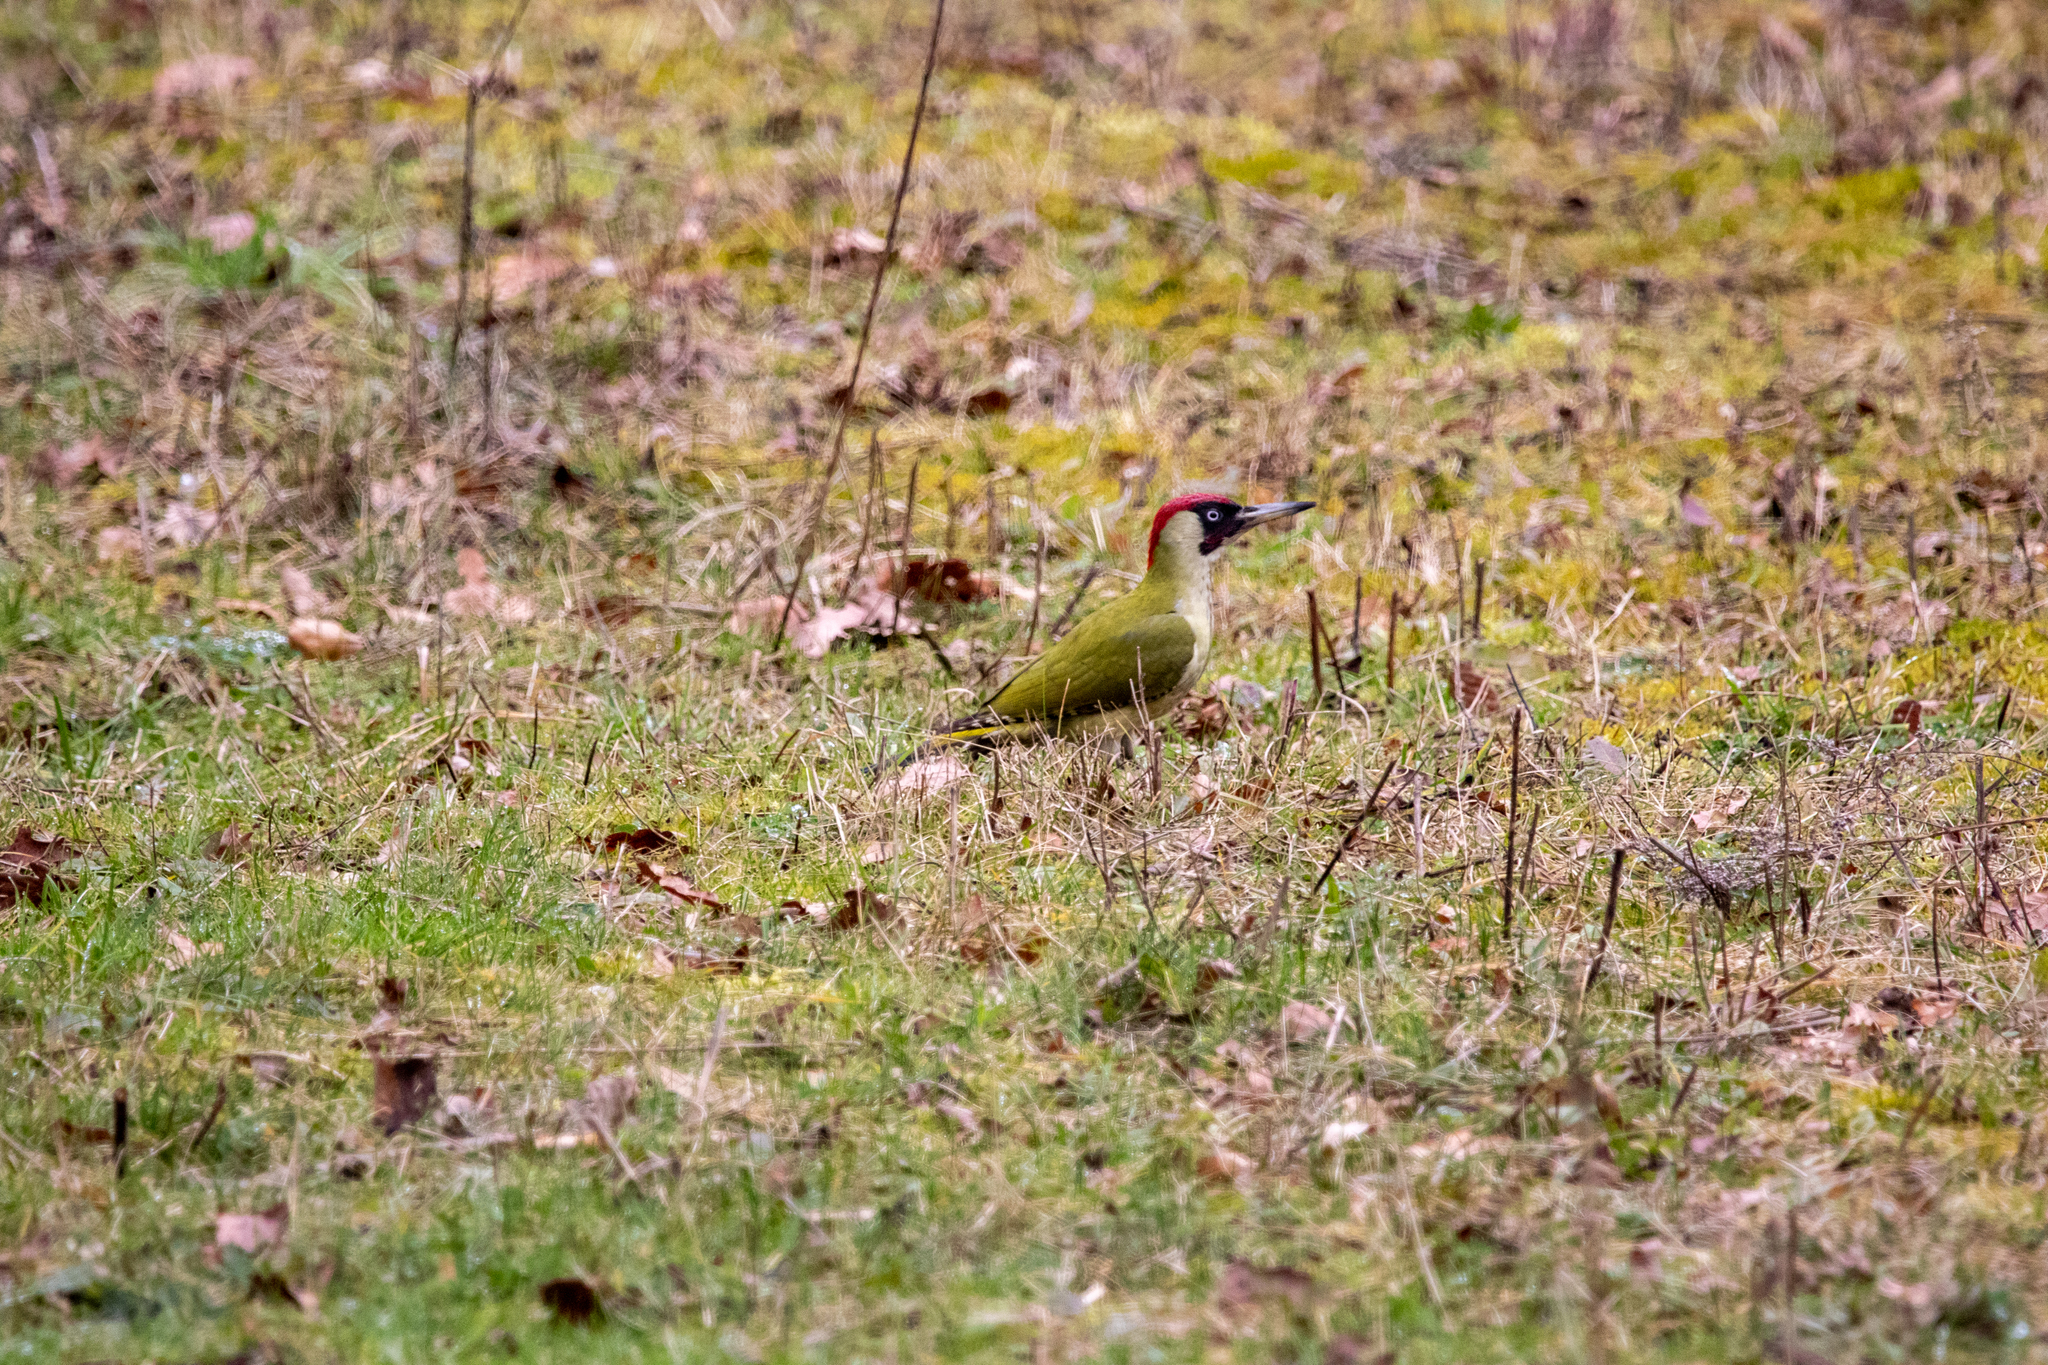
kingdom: Animalia
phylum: Chordata
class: Aves
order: Piciformes
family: Picidae
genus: Picus
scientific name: Picus viridis
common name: European green woodpecker
